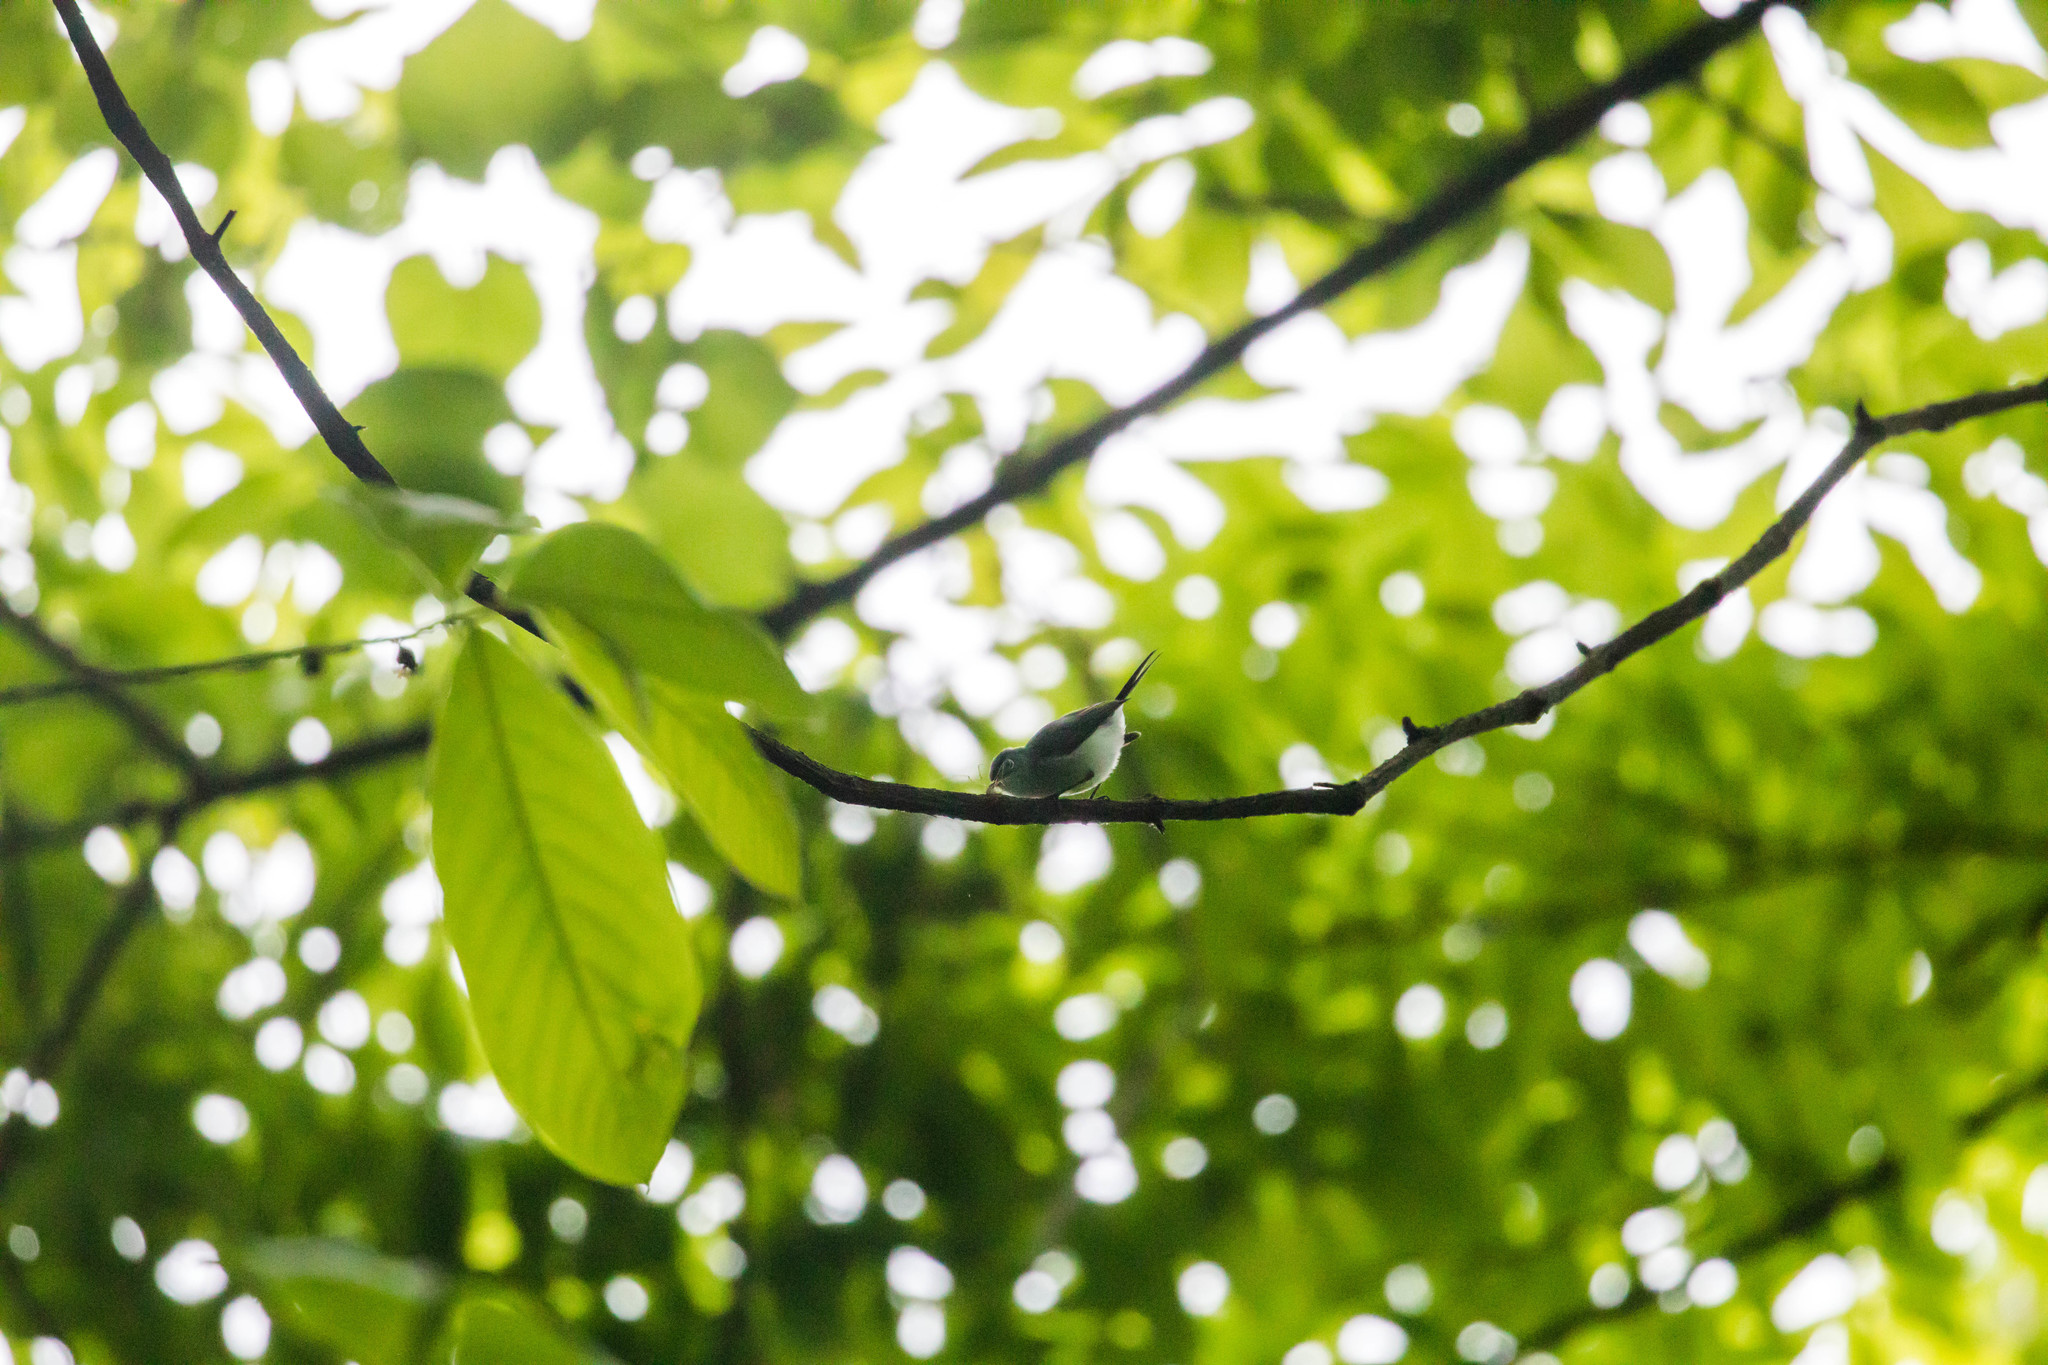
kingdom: Animalia
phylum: Chordata
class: Aves
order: Passeriformes
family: Polioptilidae
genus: Polioptila
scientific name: Polioptila caerulea
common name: Blue-gray gnatcatcher
